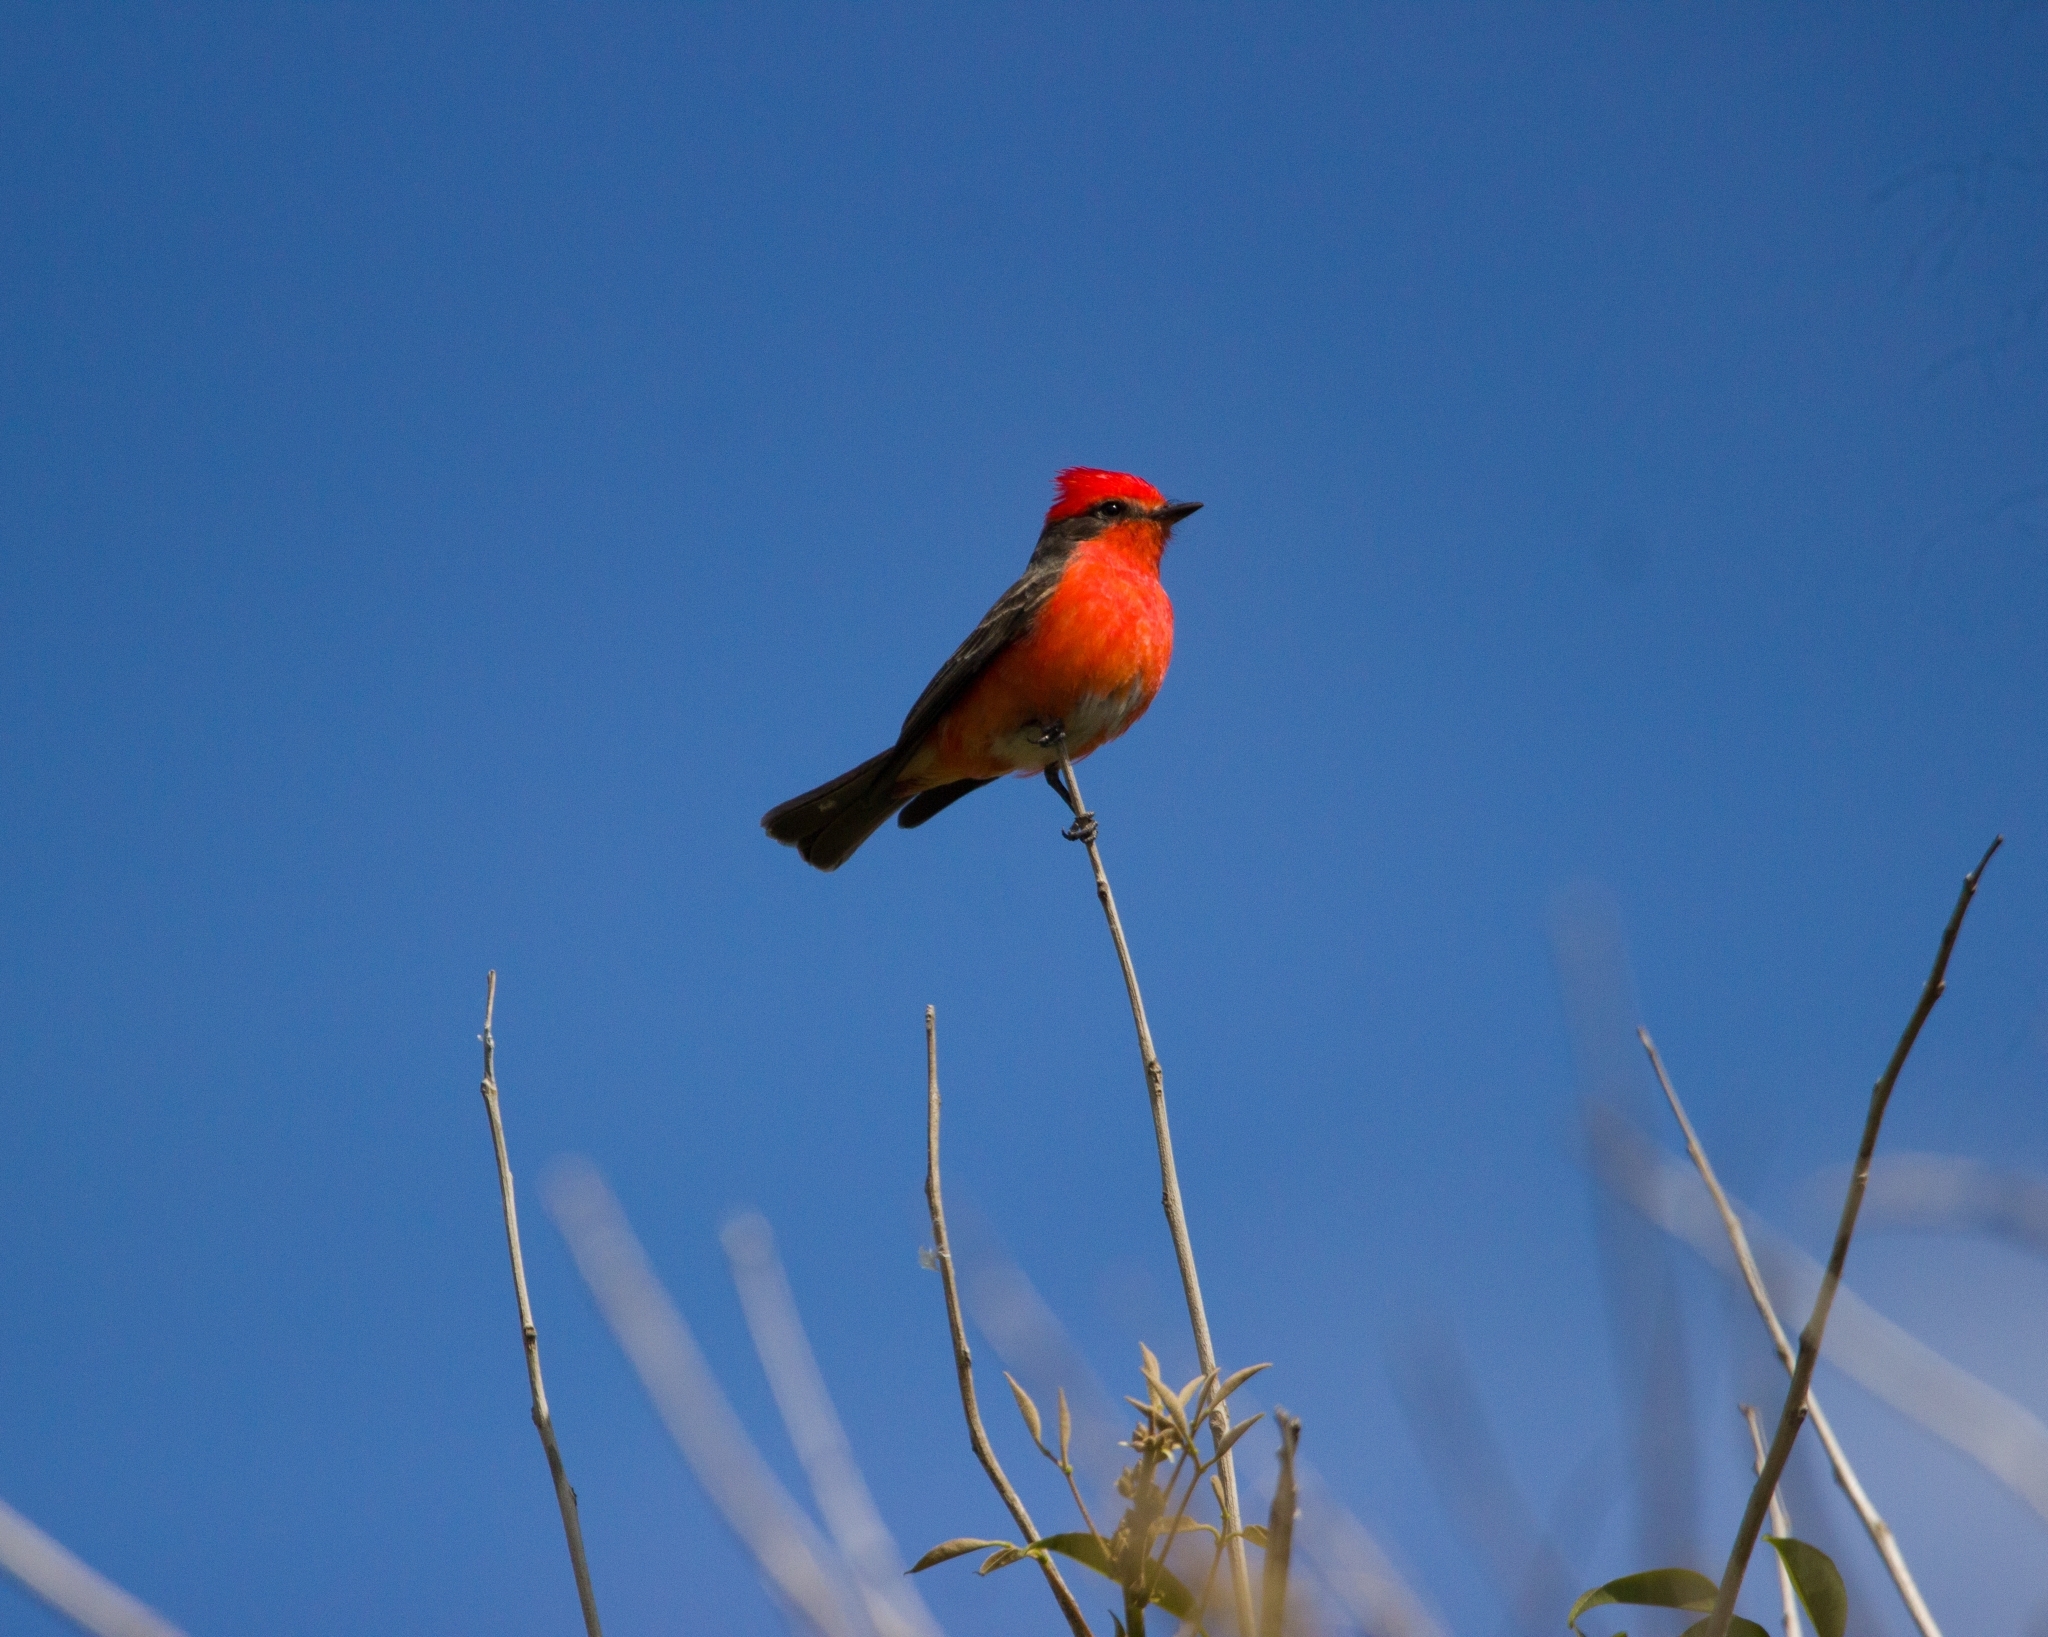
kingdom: Animalia
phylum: Chordata
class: Aves
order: Passeriformes
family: Tyrannidae
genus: Pyrocephalus
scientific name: Pyrocephalus rubinus
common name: Vermilion flycatcher
